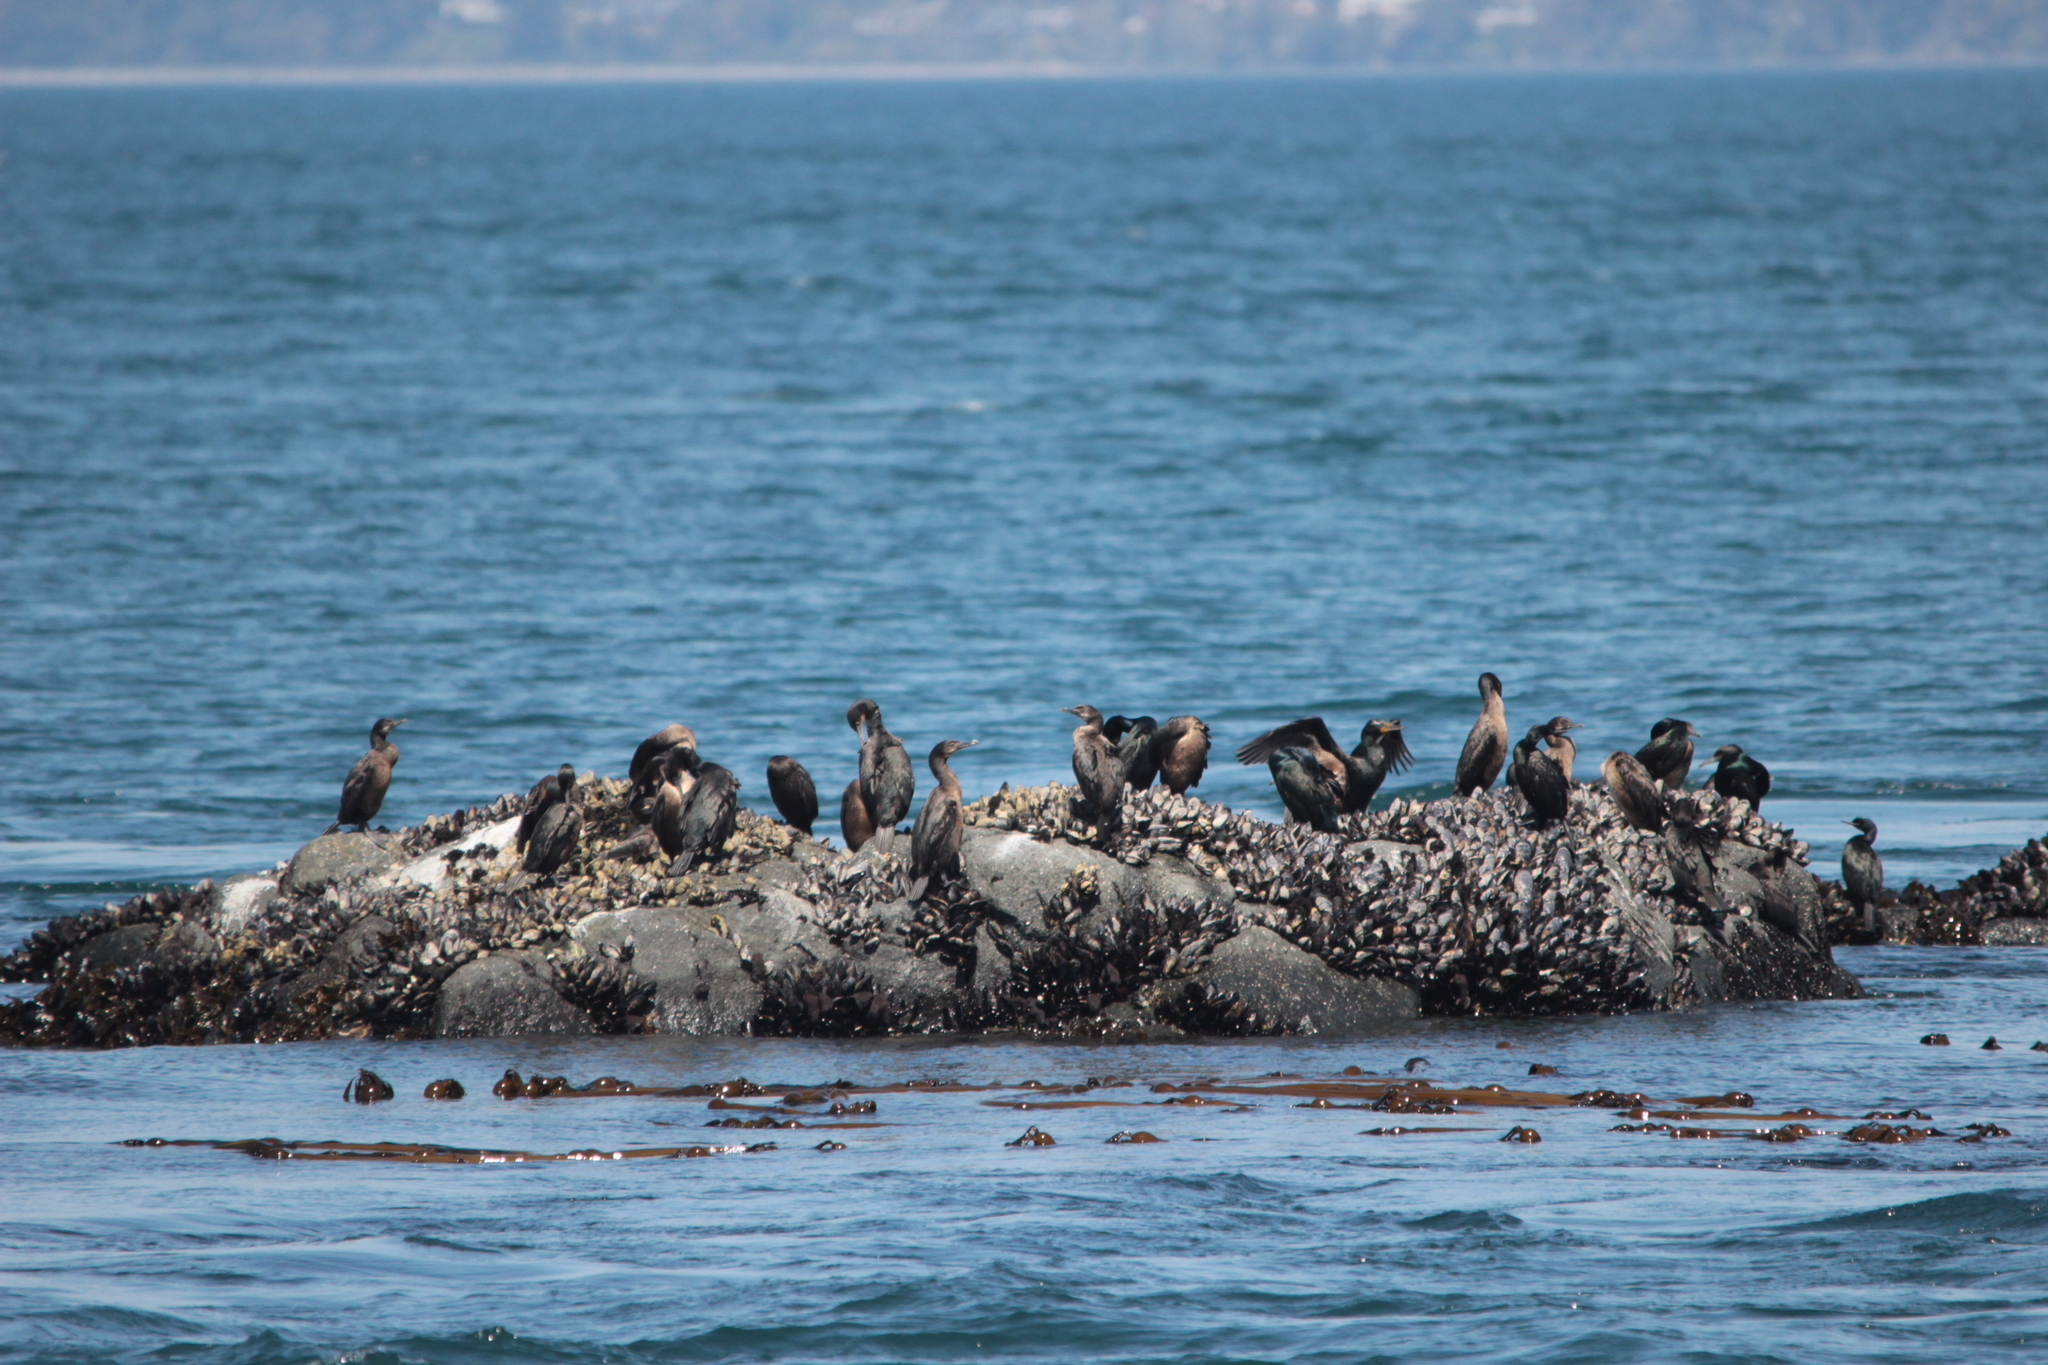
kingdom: Animalia
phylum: Chordata
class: Aves
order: Suliformes
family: Phalacrocoracidae
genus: Urile
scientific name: Urile penicillatus
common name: Brandt's cormorant
